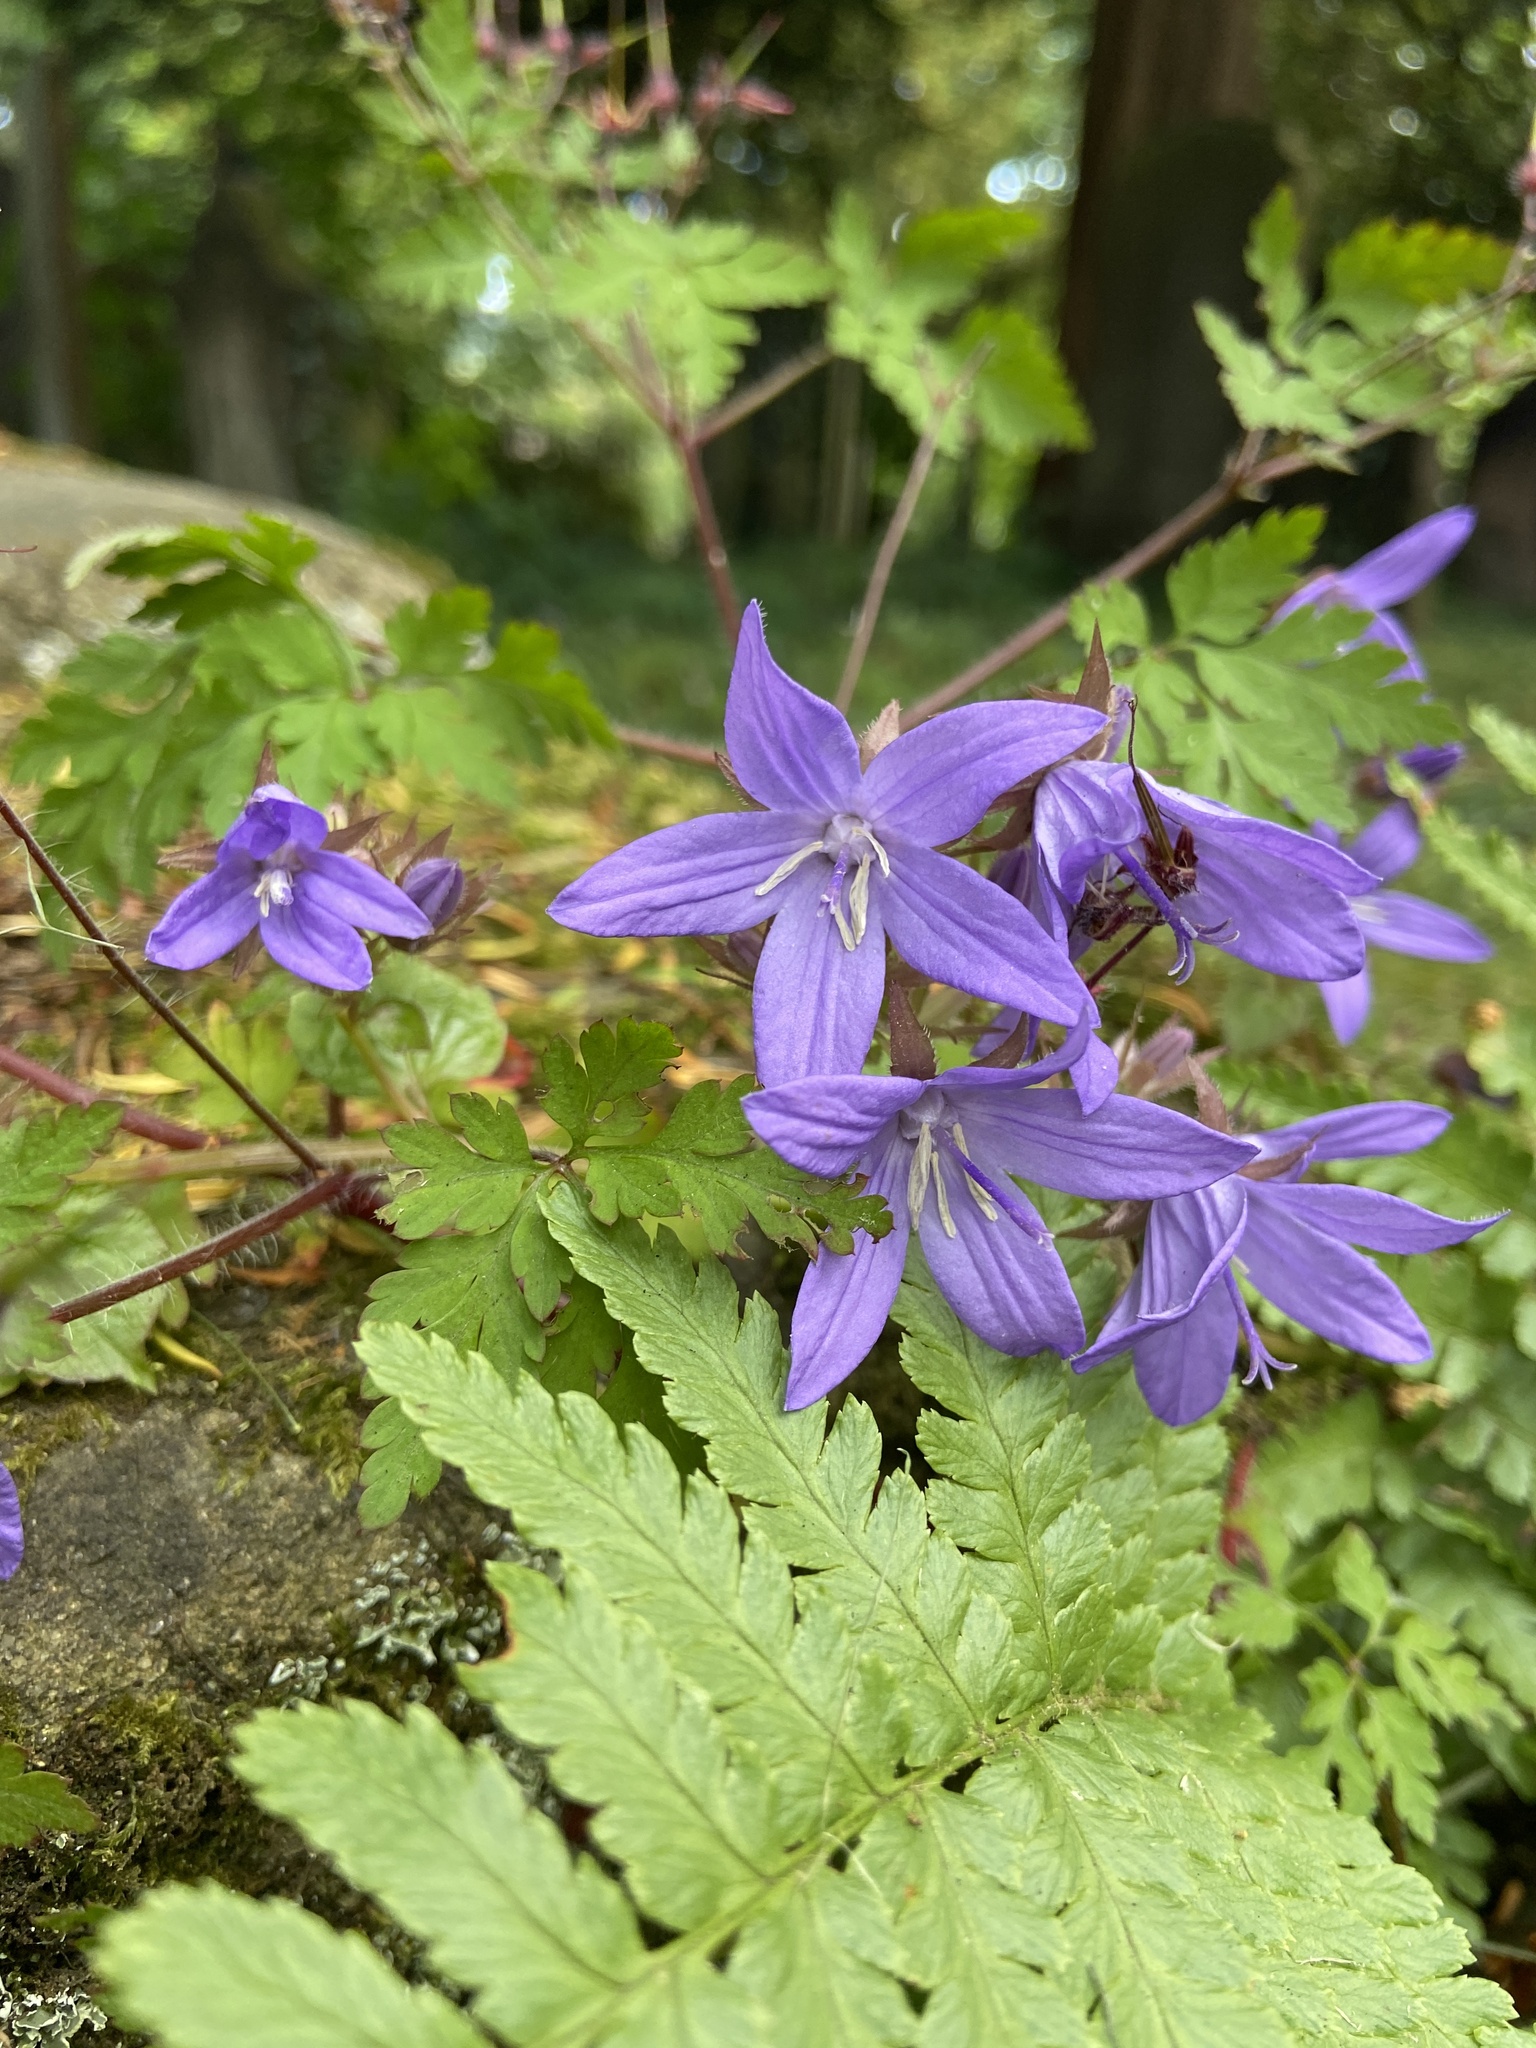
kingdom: Plantae
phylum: Tracheophyta
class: Magnoliopsida
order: Asterales
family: Campanulaceae
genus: Campanula
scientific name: Campanula poscharskyana
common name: Trailing bellflower
